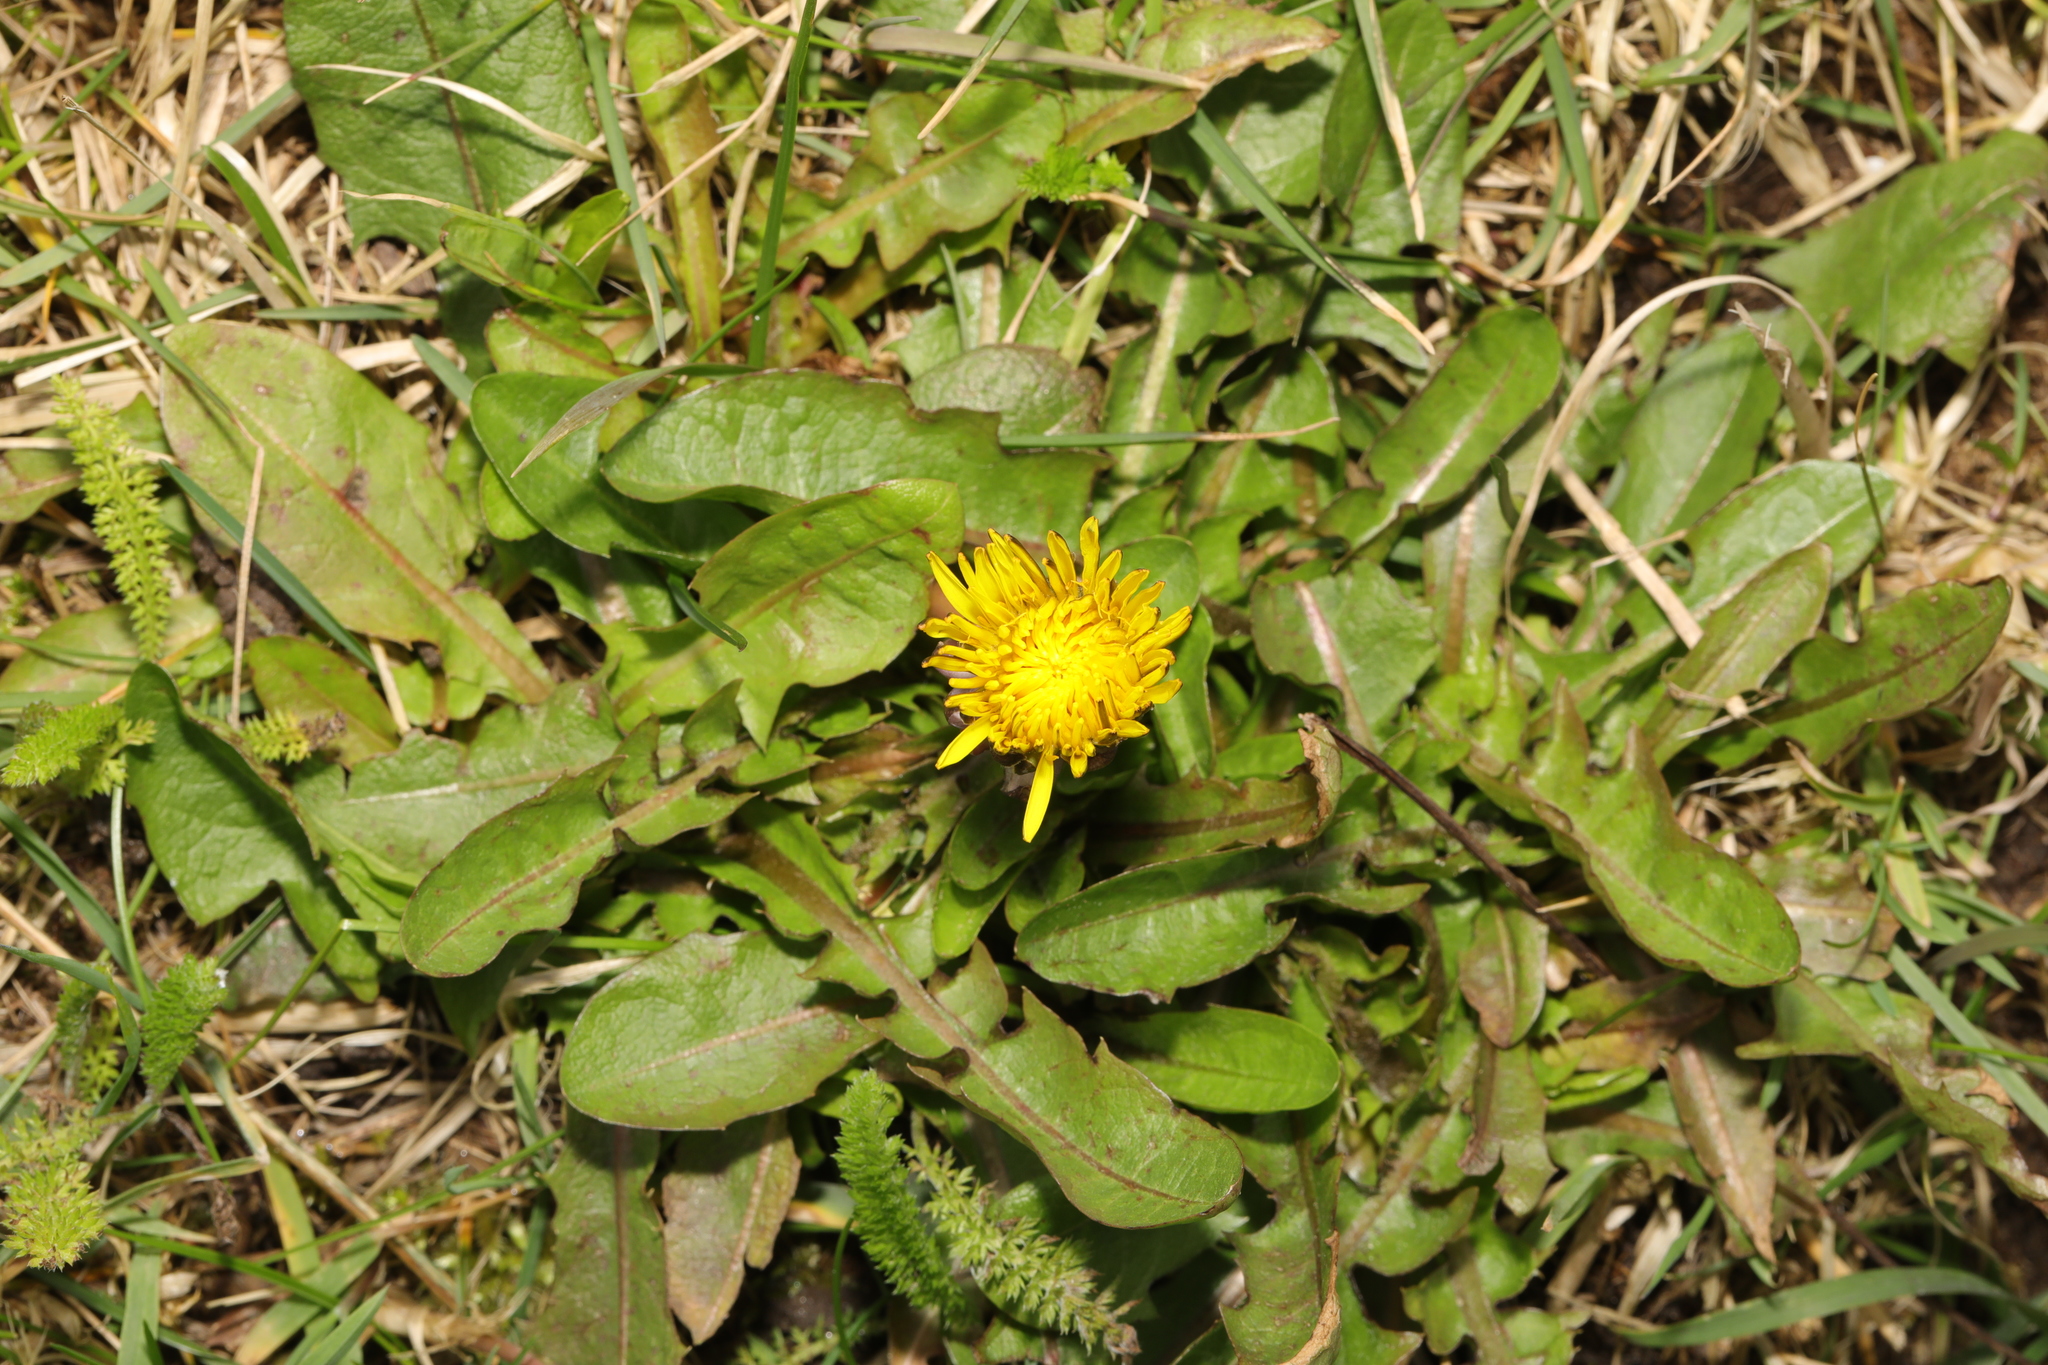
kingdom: Plantae
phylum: Tracheophyta
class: Magnoliopsida
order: Asterales
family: Asteraceae
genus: Taraxacum
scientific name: Taraxacum officinale
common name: Common dandelion
